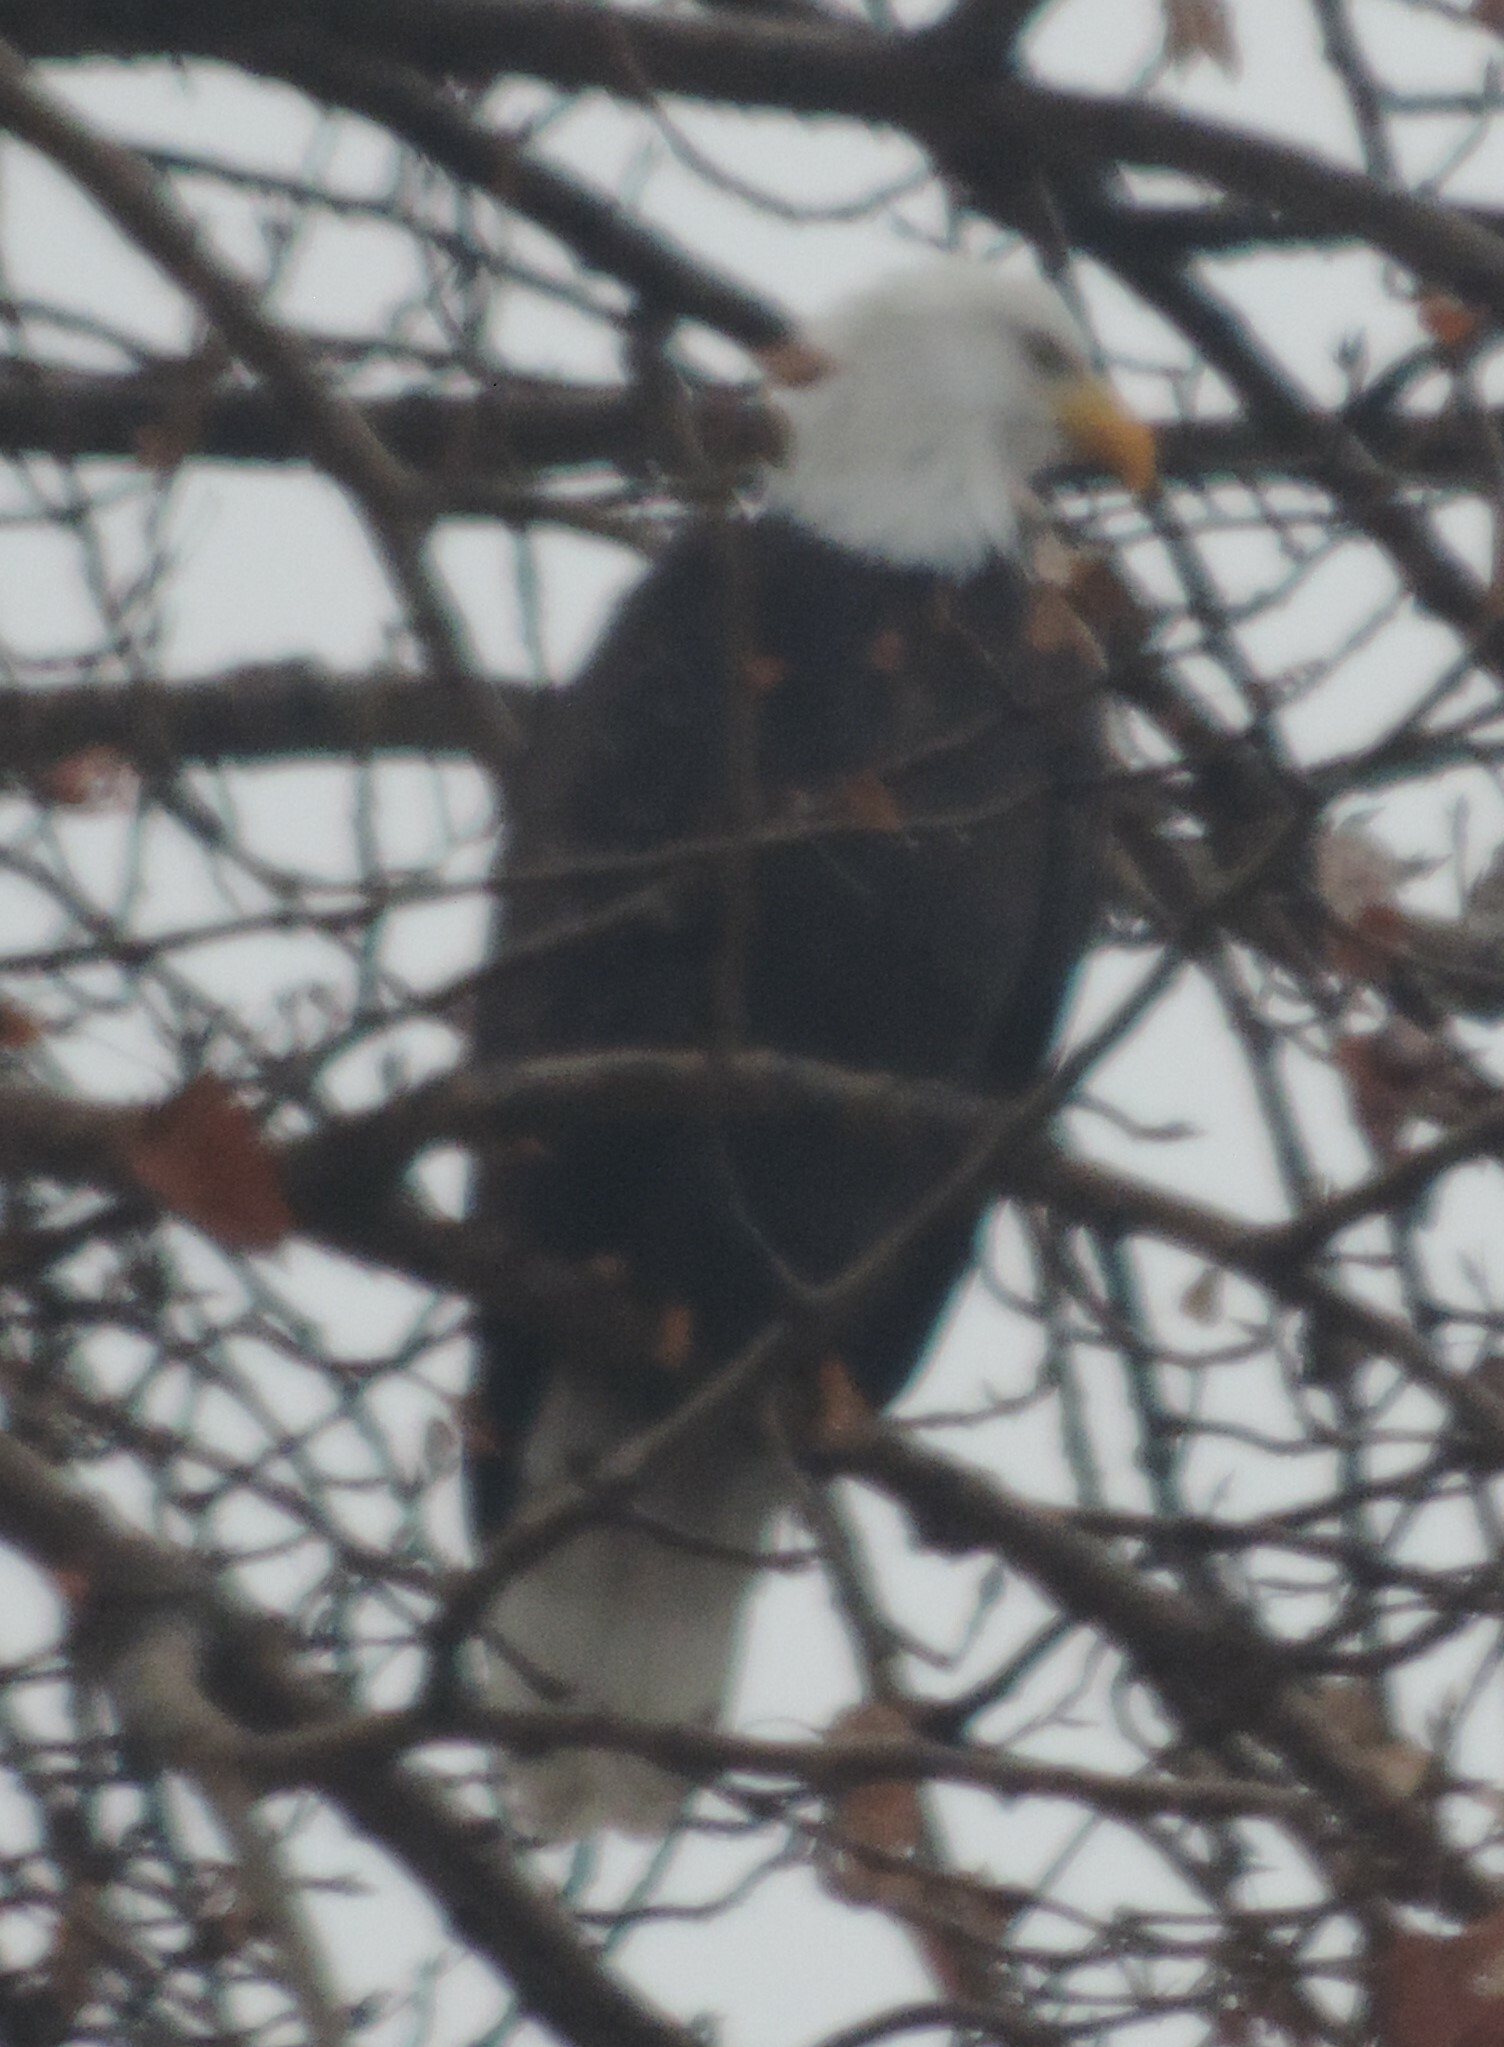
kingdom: Animalia
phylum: Chordata
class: Aves
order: Accipitriformes
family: Accipitridae
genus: Haliaeetus
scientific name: Haliaeetus leucocephalus
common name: Bald eagle
